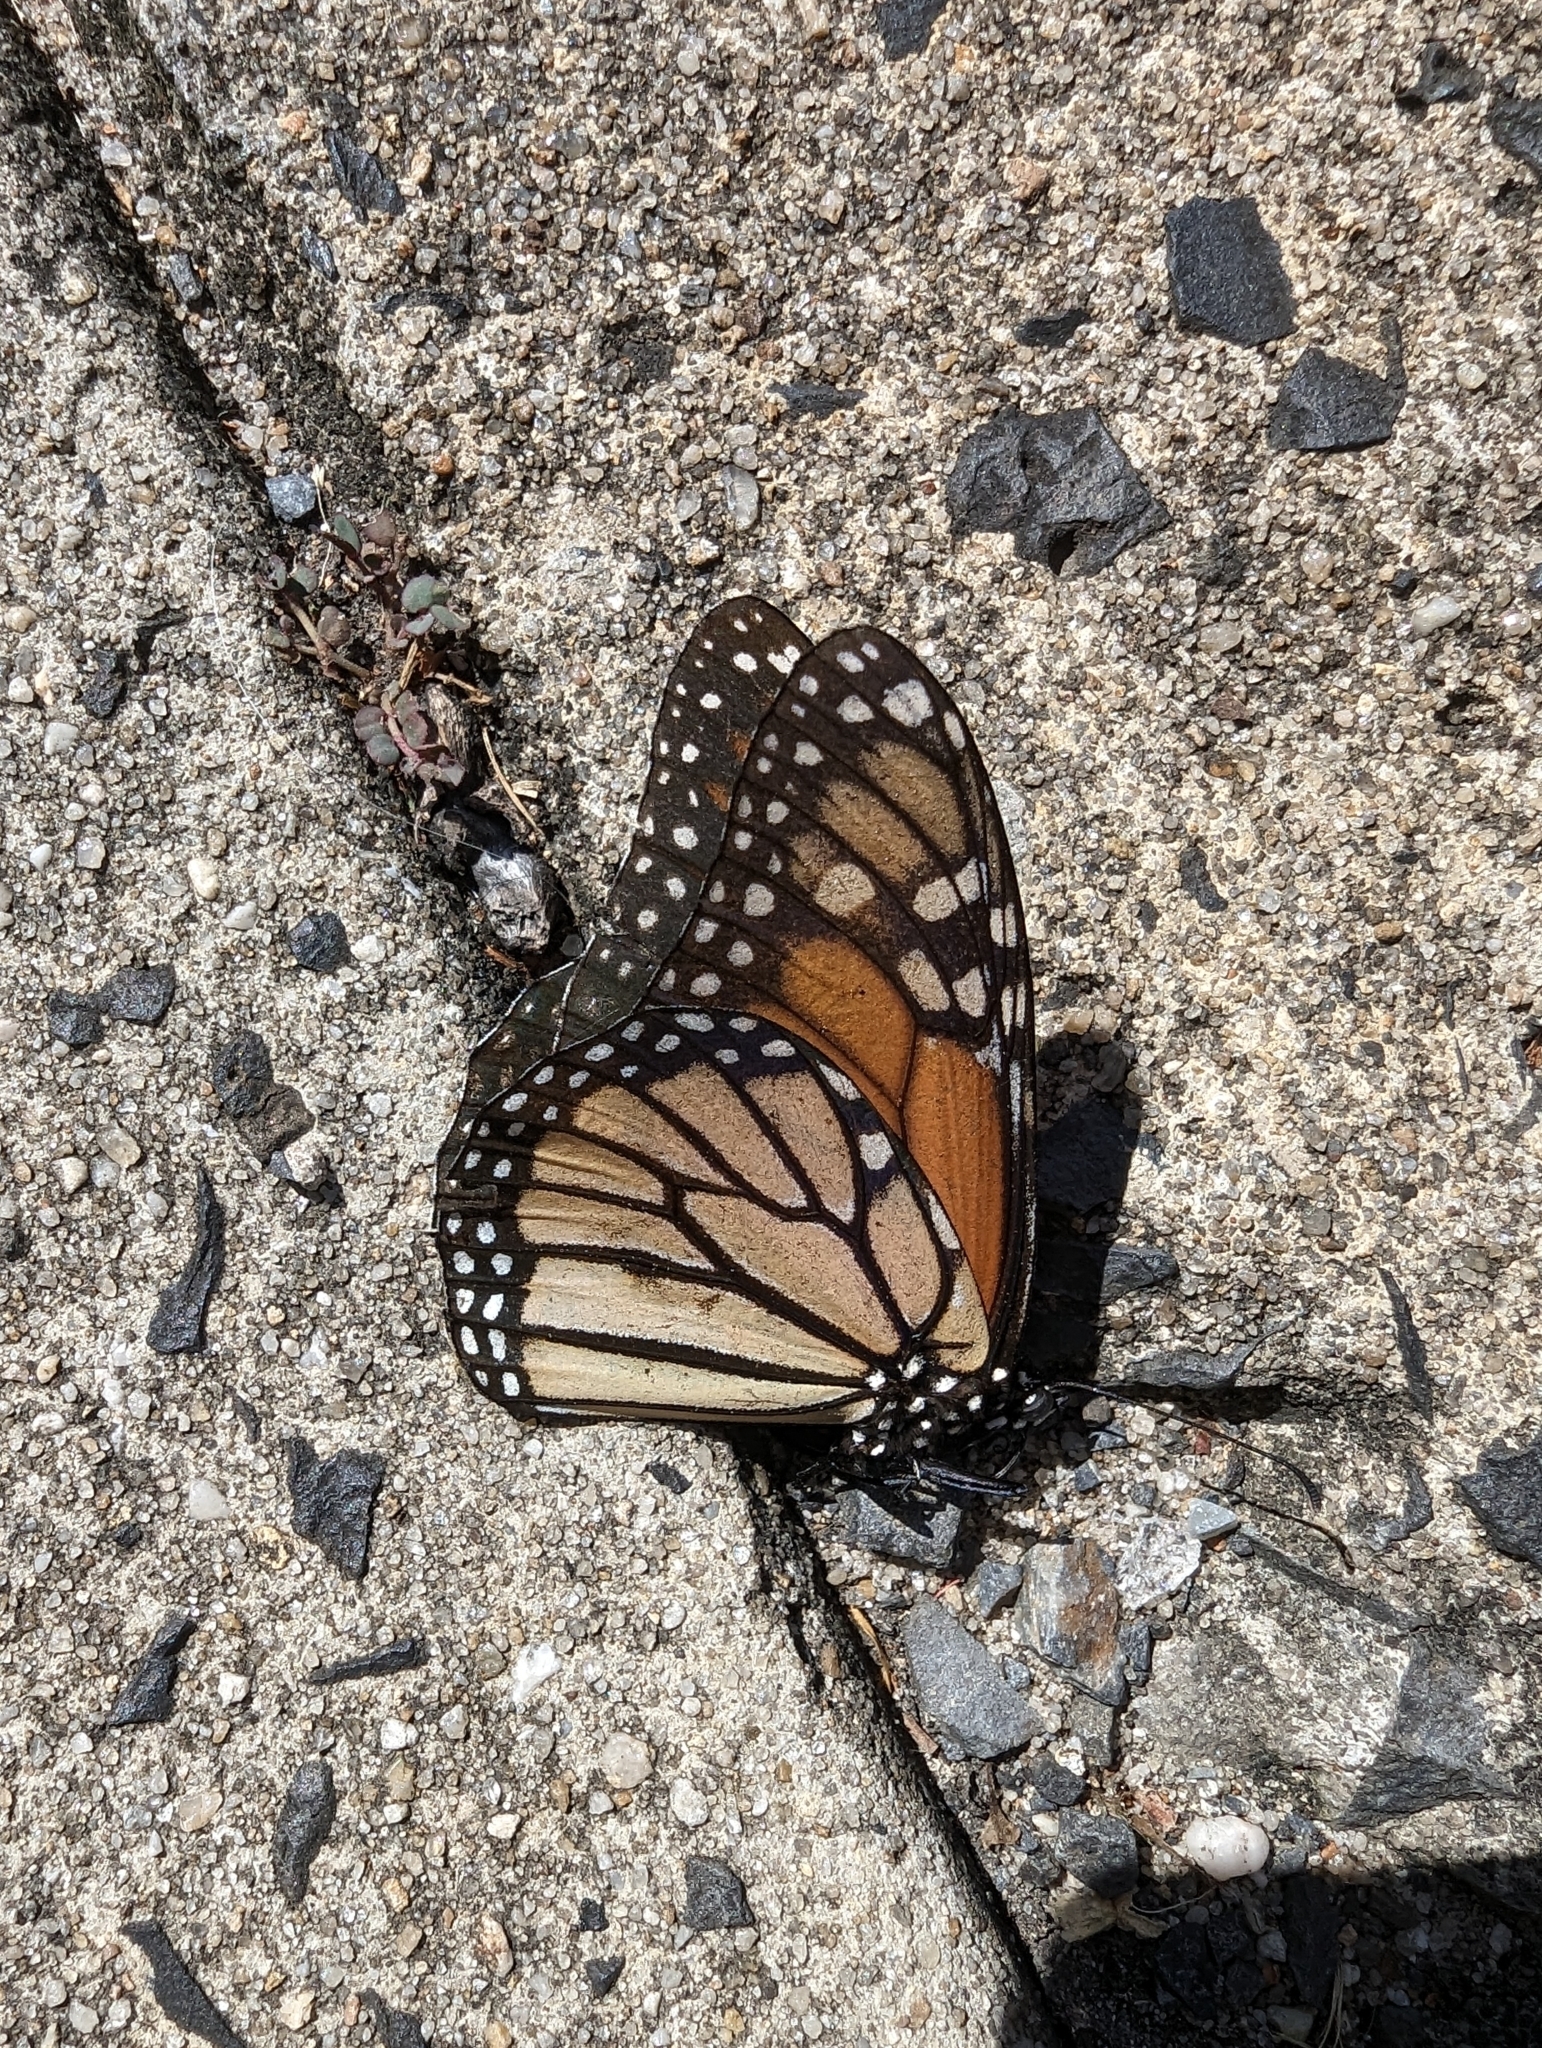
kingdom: Animalia
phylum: Arthropoda
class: Insecta
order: Lepidoptera
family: Nymphalidae
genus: Danaus
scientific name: Danaus plexippus
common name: Monarch
